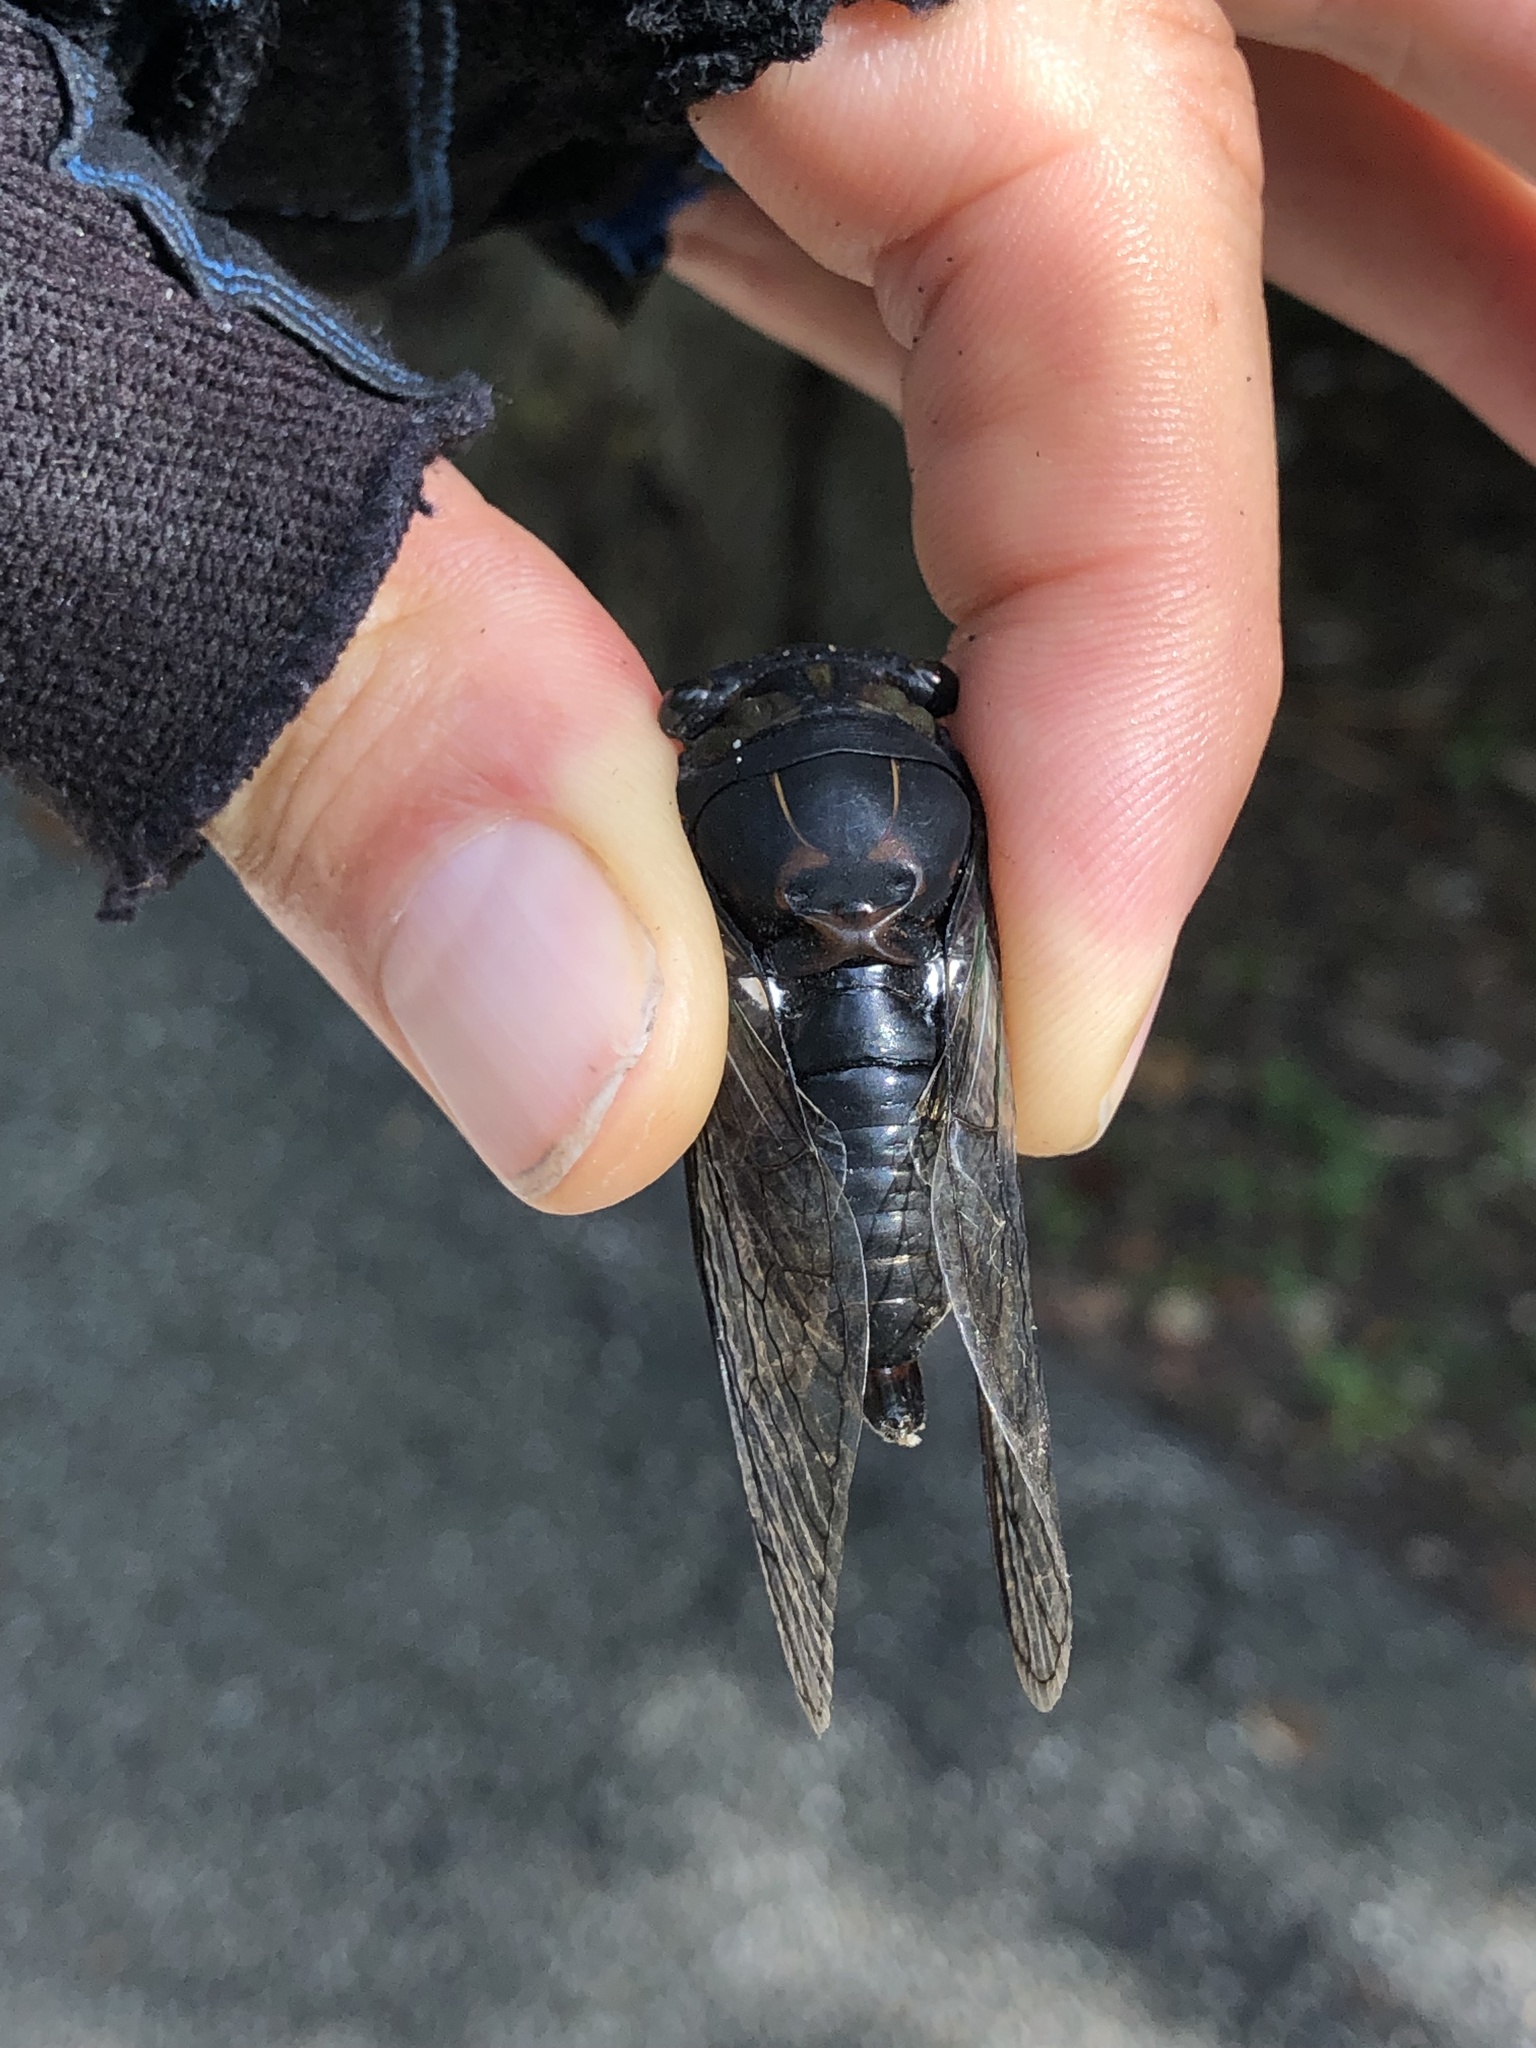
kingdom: Animalia
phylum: Arthropoda
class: Insecta
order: Hemiptera
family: Cicadidae
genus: Neotibicen
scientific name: Neotibicen tibicen
